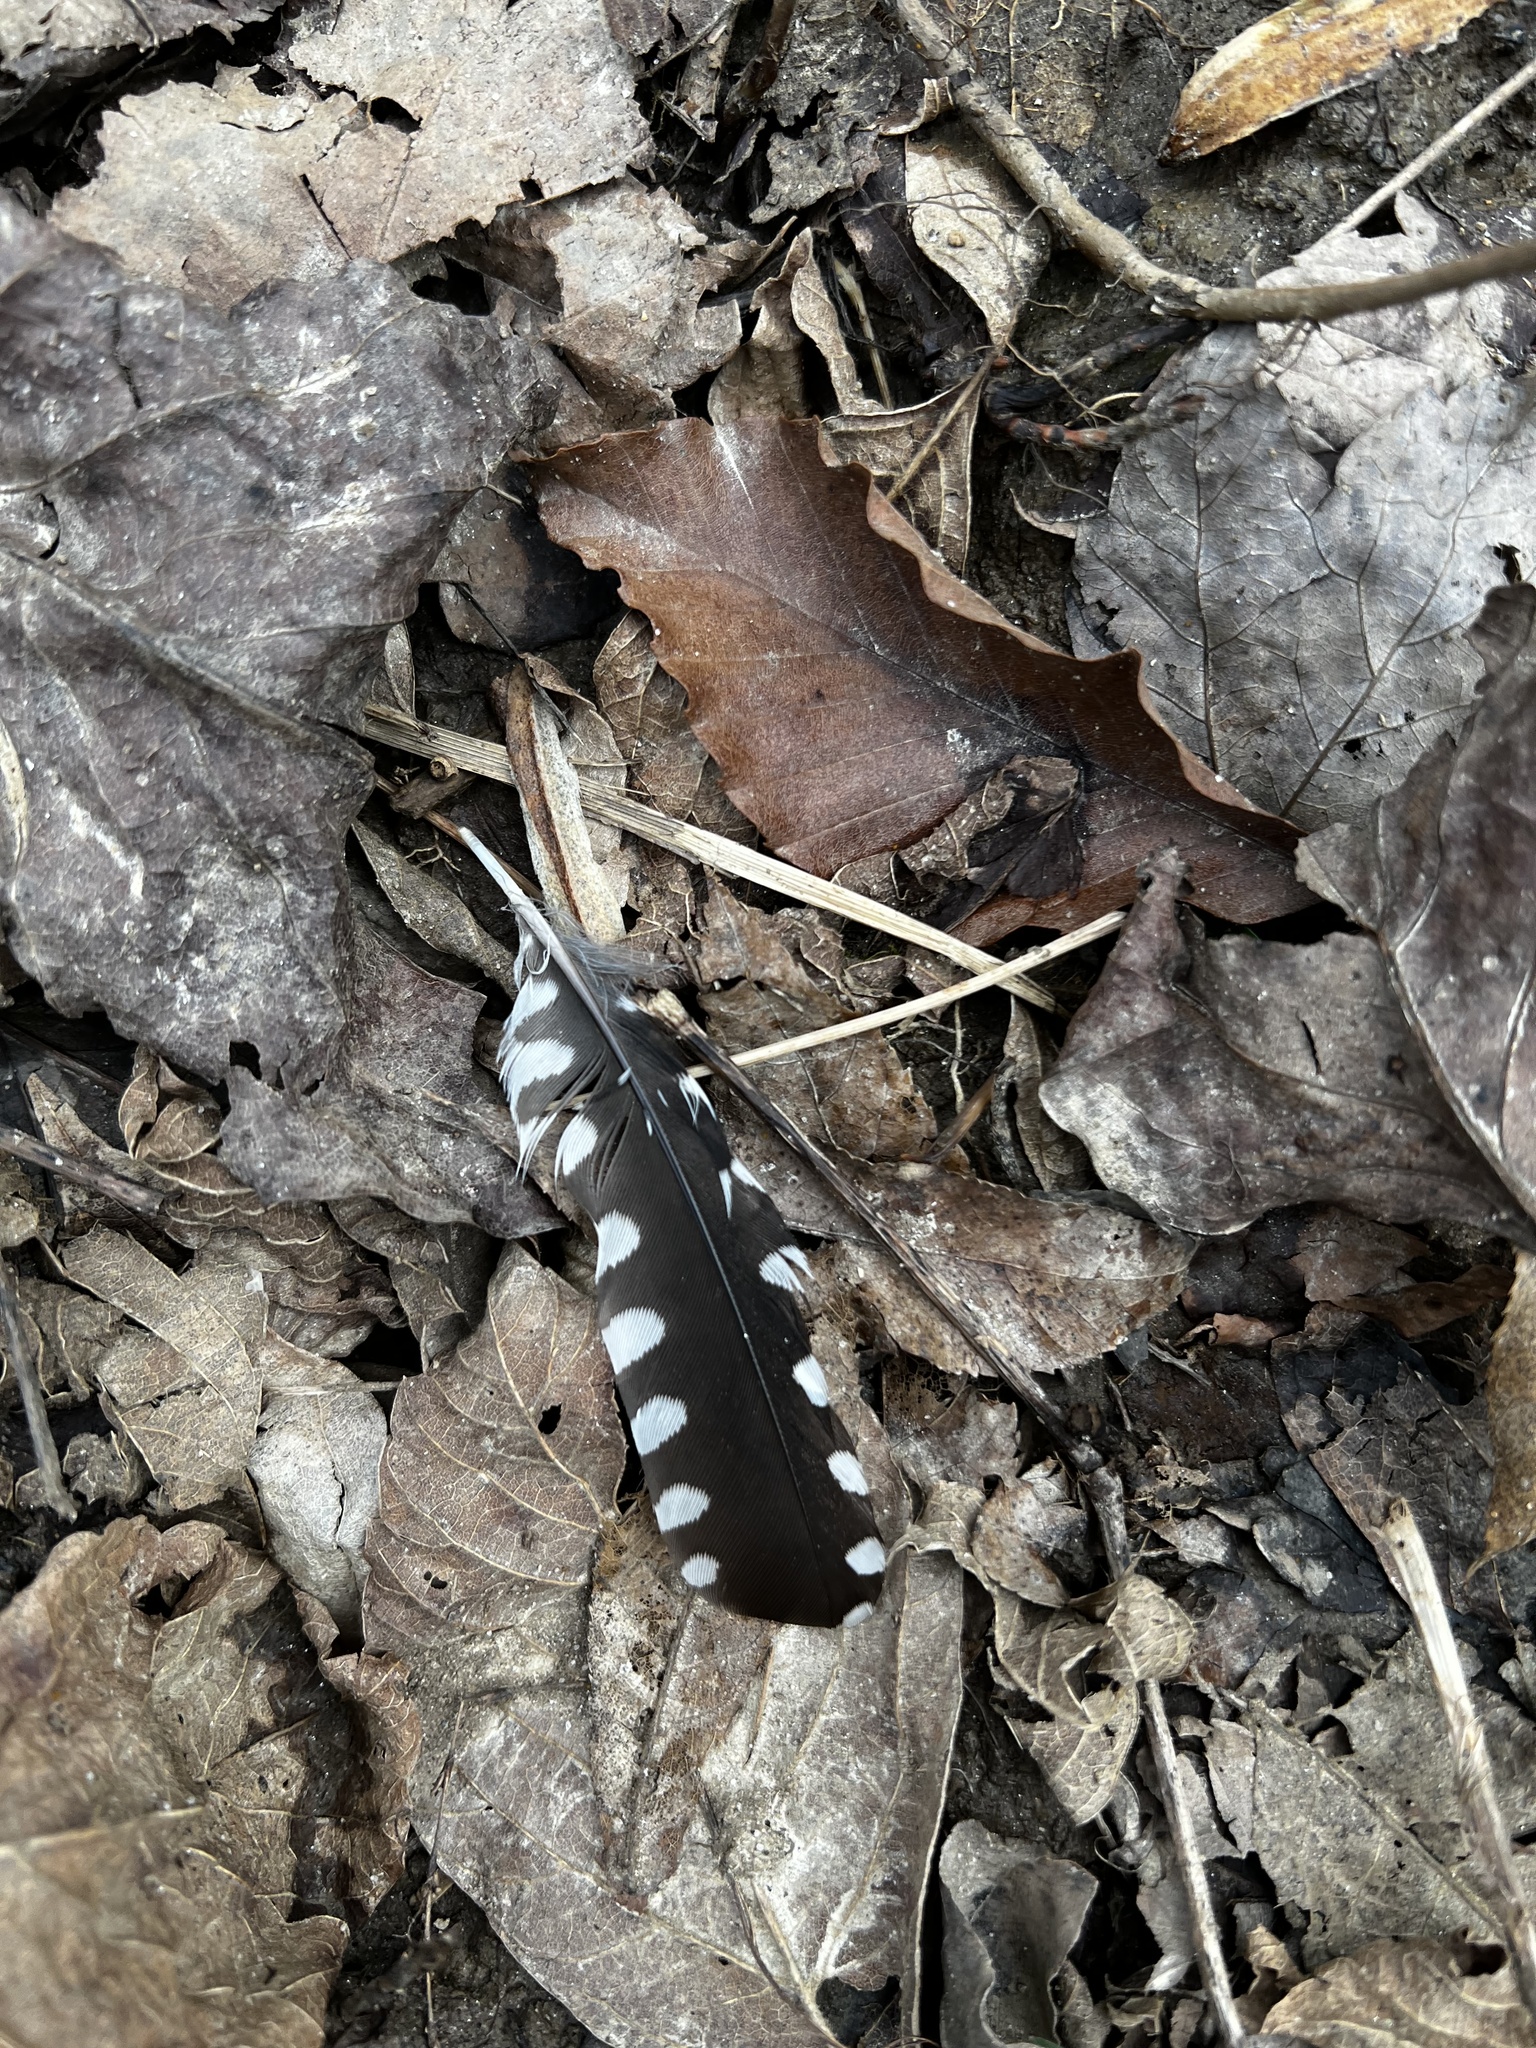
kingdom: Animalia
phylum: Chordata
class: Aves
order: Piciformes
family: Picidae
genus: Melanerpes
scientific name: Melanerpes carolinus
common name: Red-bellied woodpecker
